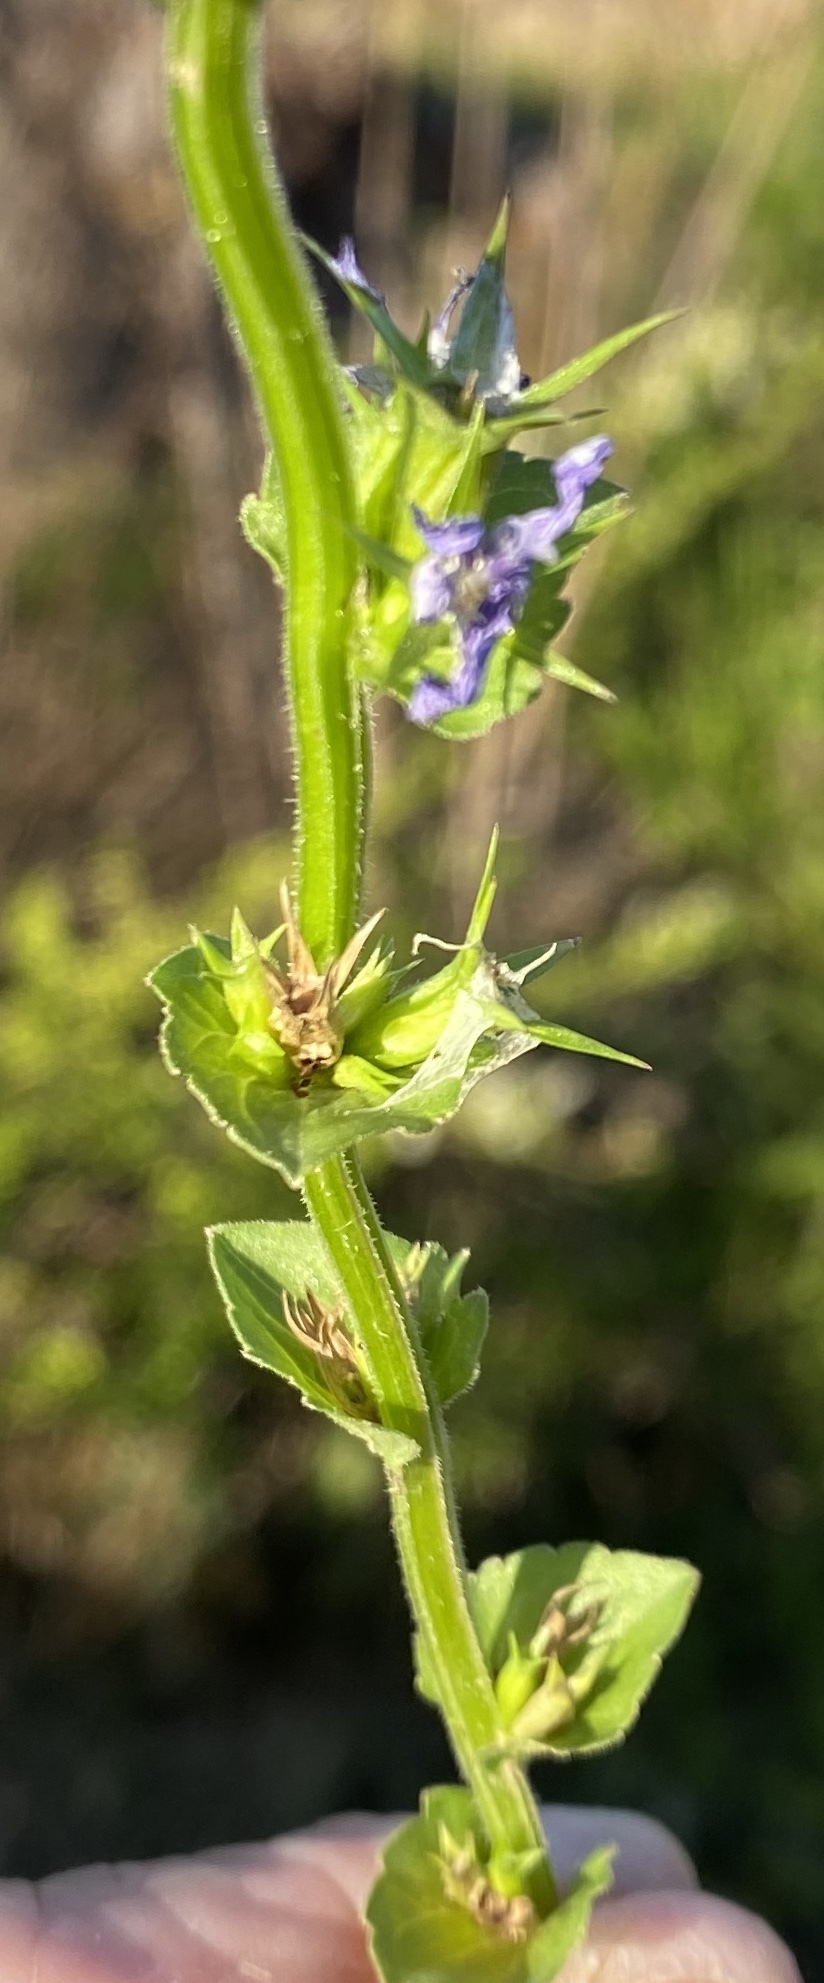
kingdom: Plantae
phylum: Tracheophyta
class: Magnoliopsida
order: Asterales
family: Campanulaceae
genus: Triodanis
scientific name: Triodanis perfoliata
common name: Clasping venus' looking-glass
